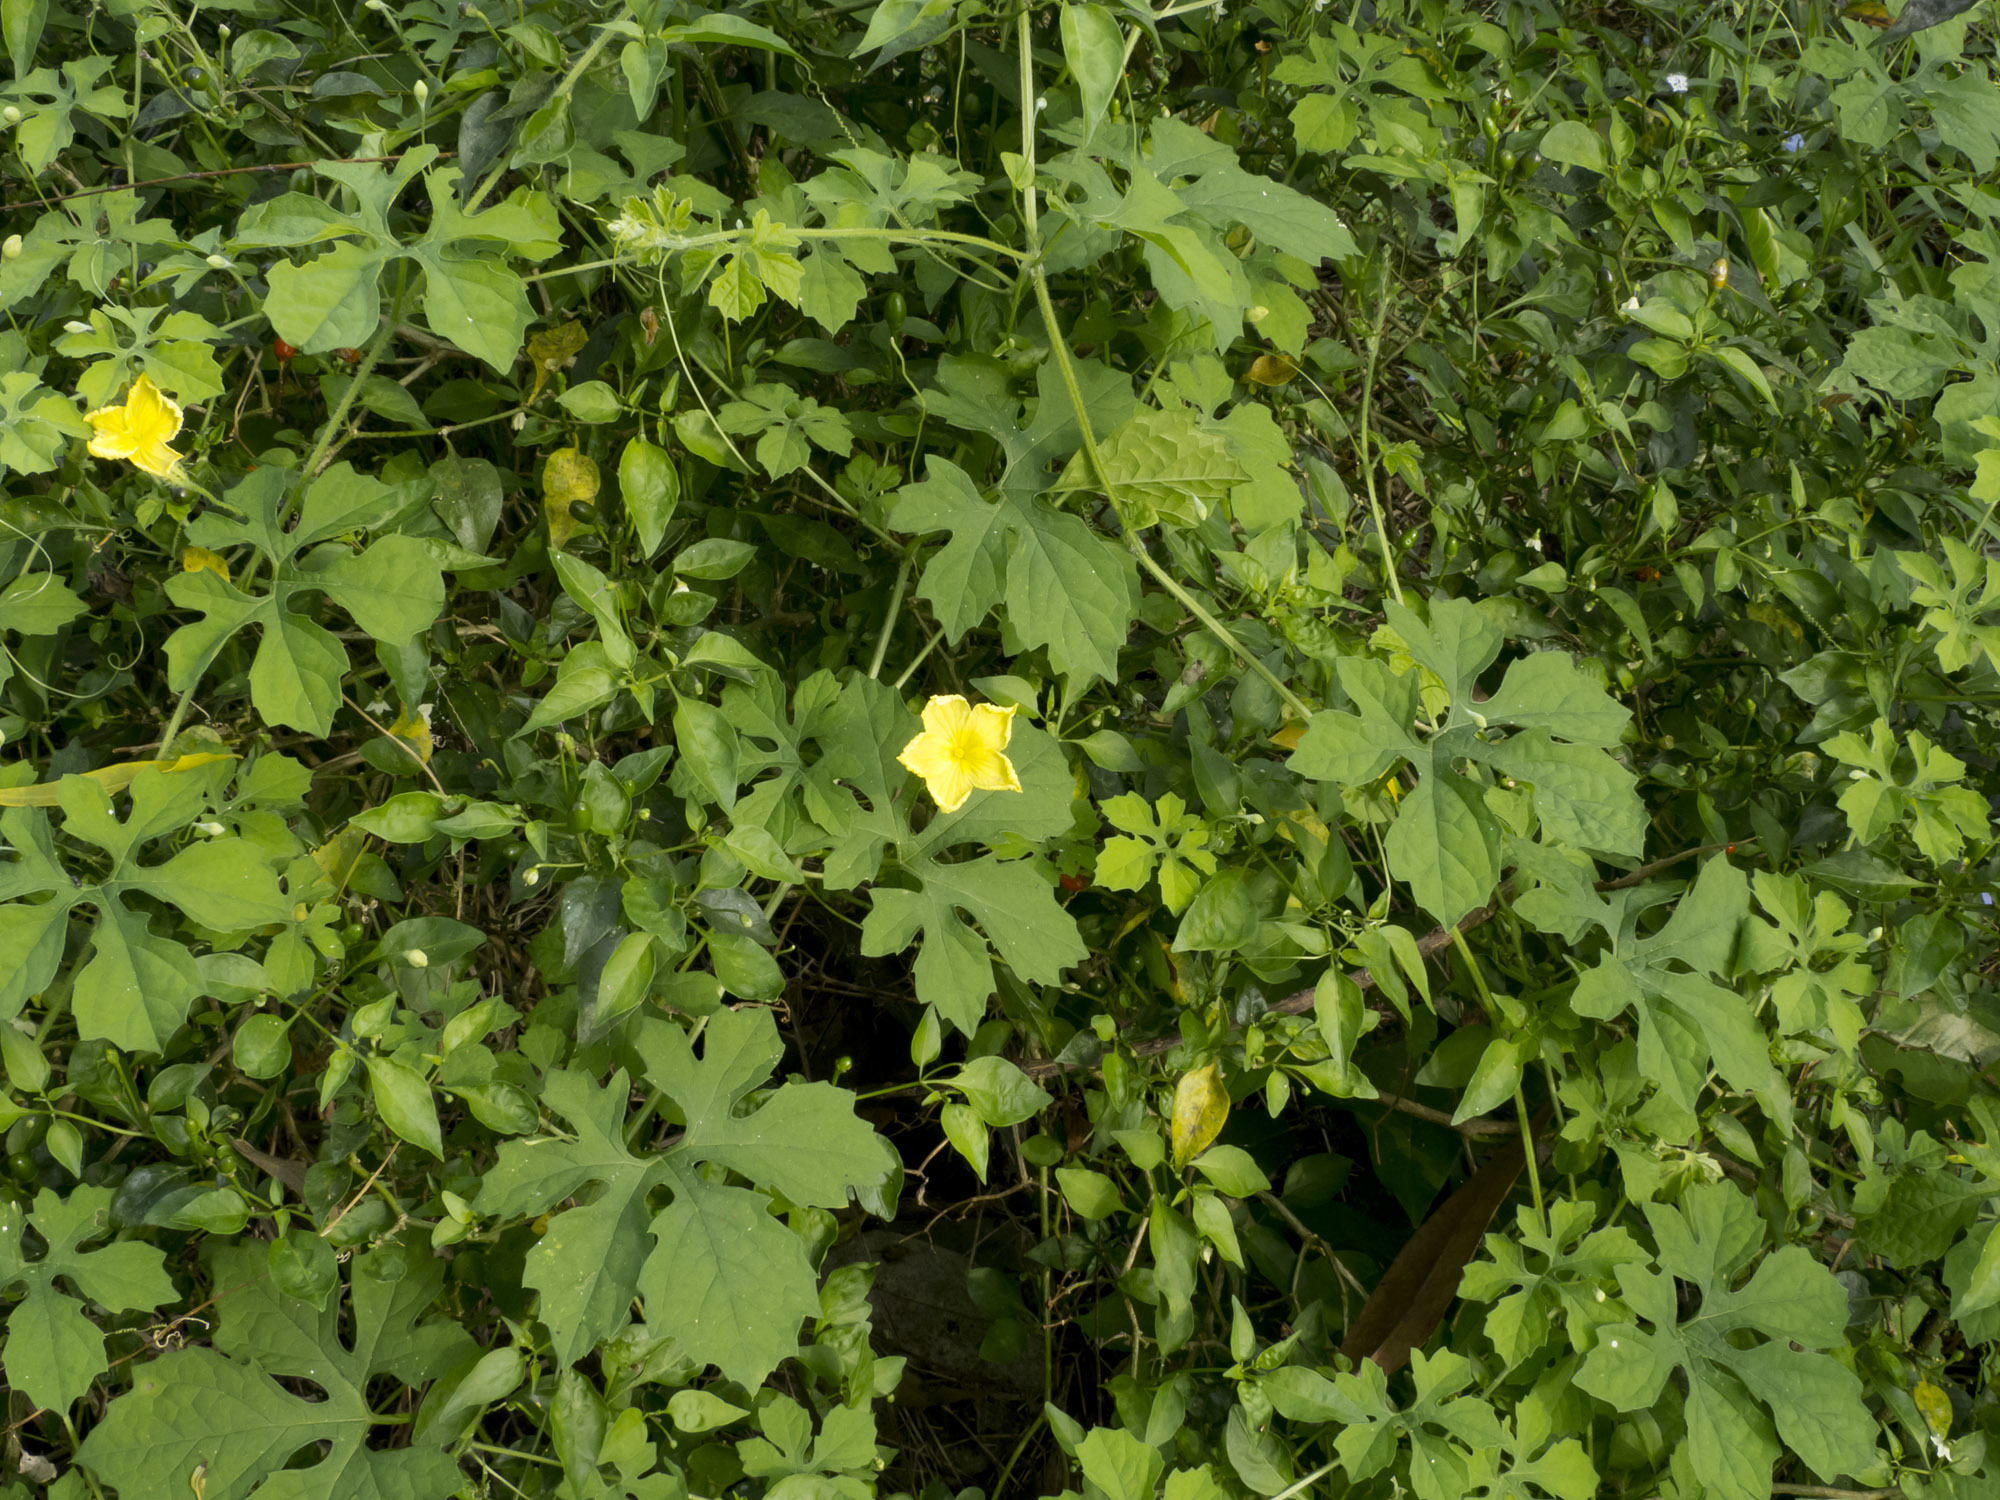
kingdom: Plantae
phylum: Tracheophyta
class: Magnoliopsida
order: Cucurbitales
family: Cucurbitaceae
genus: Momordica
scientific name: Momordica charantia
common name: Balsampear
